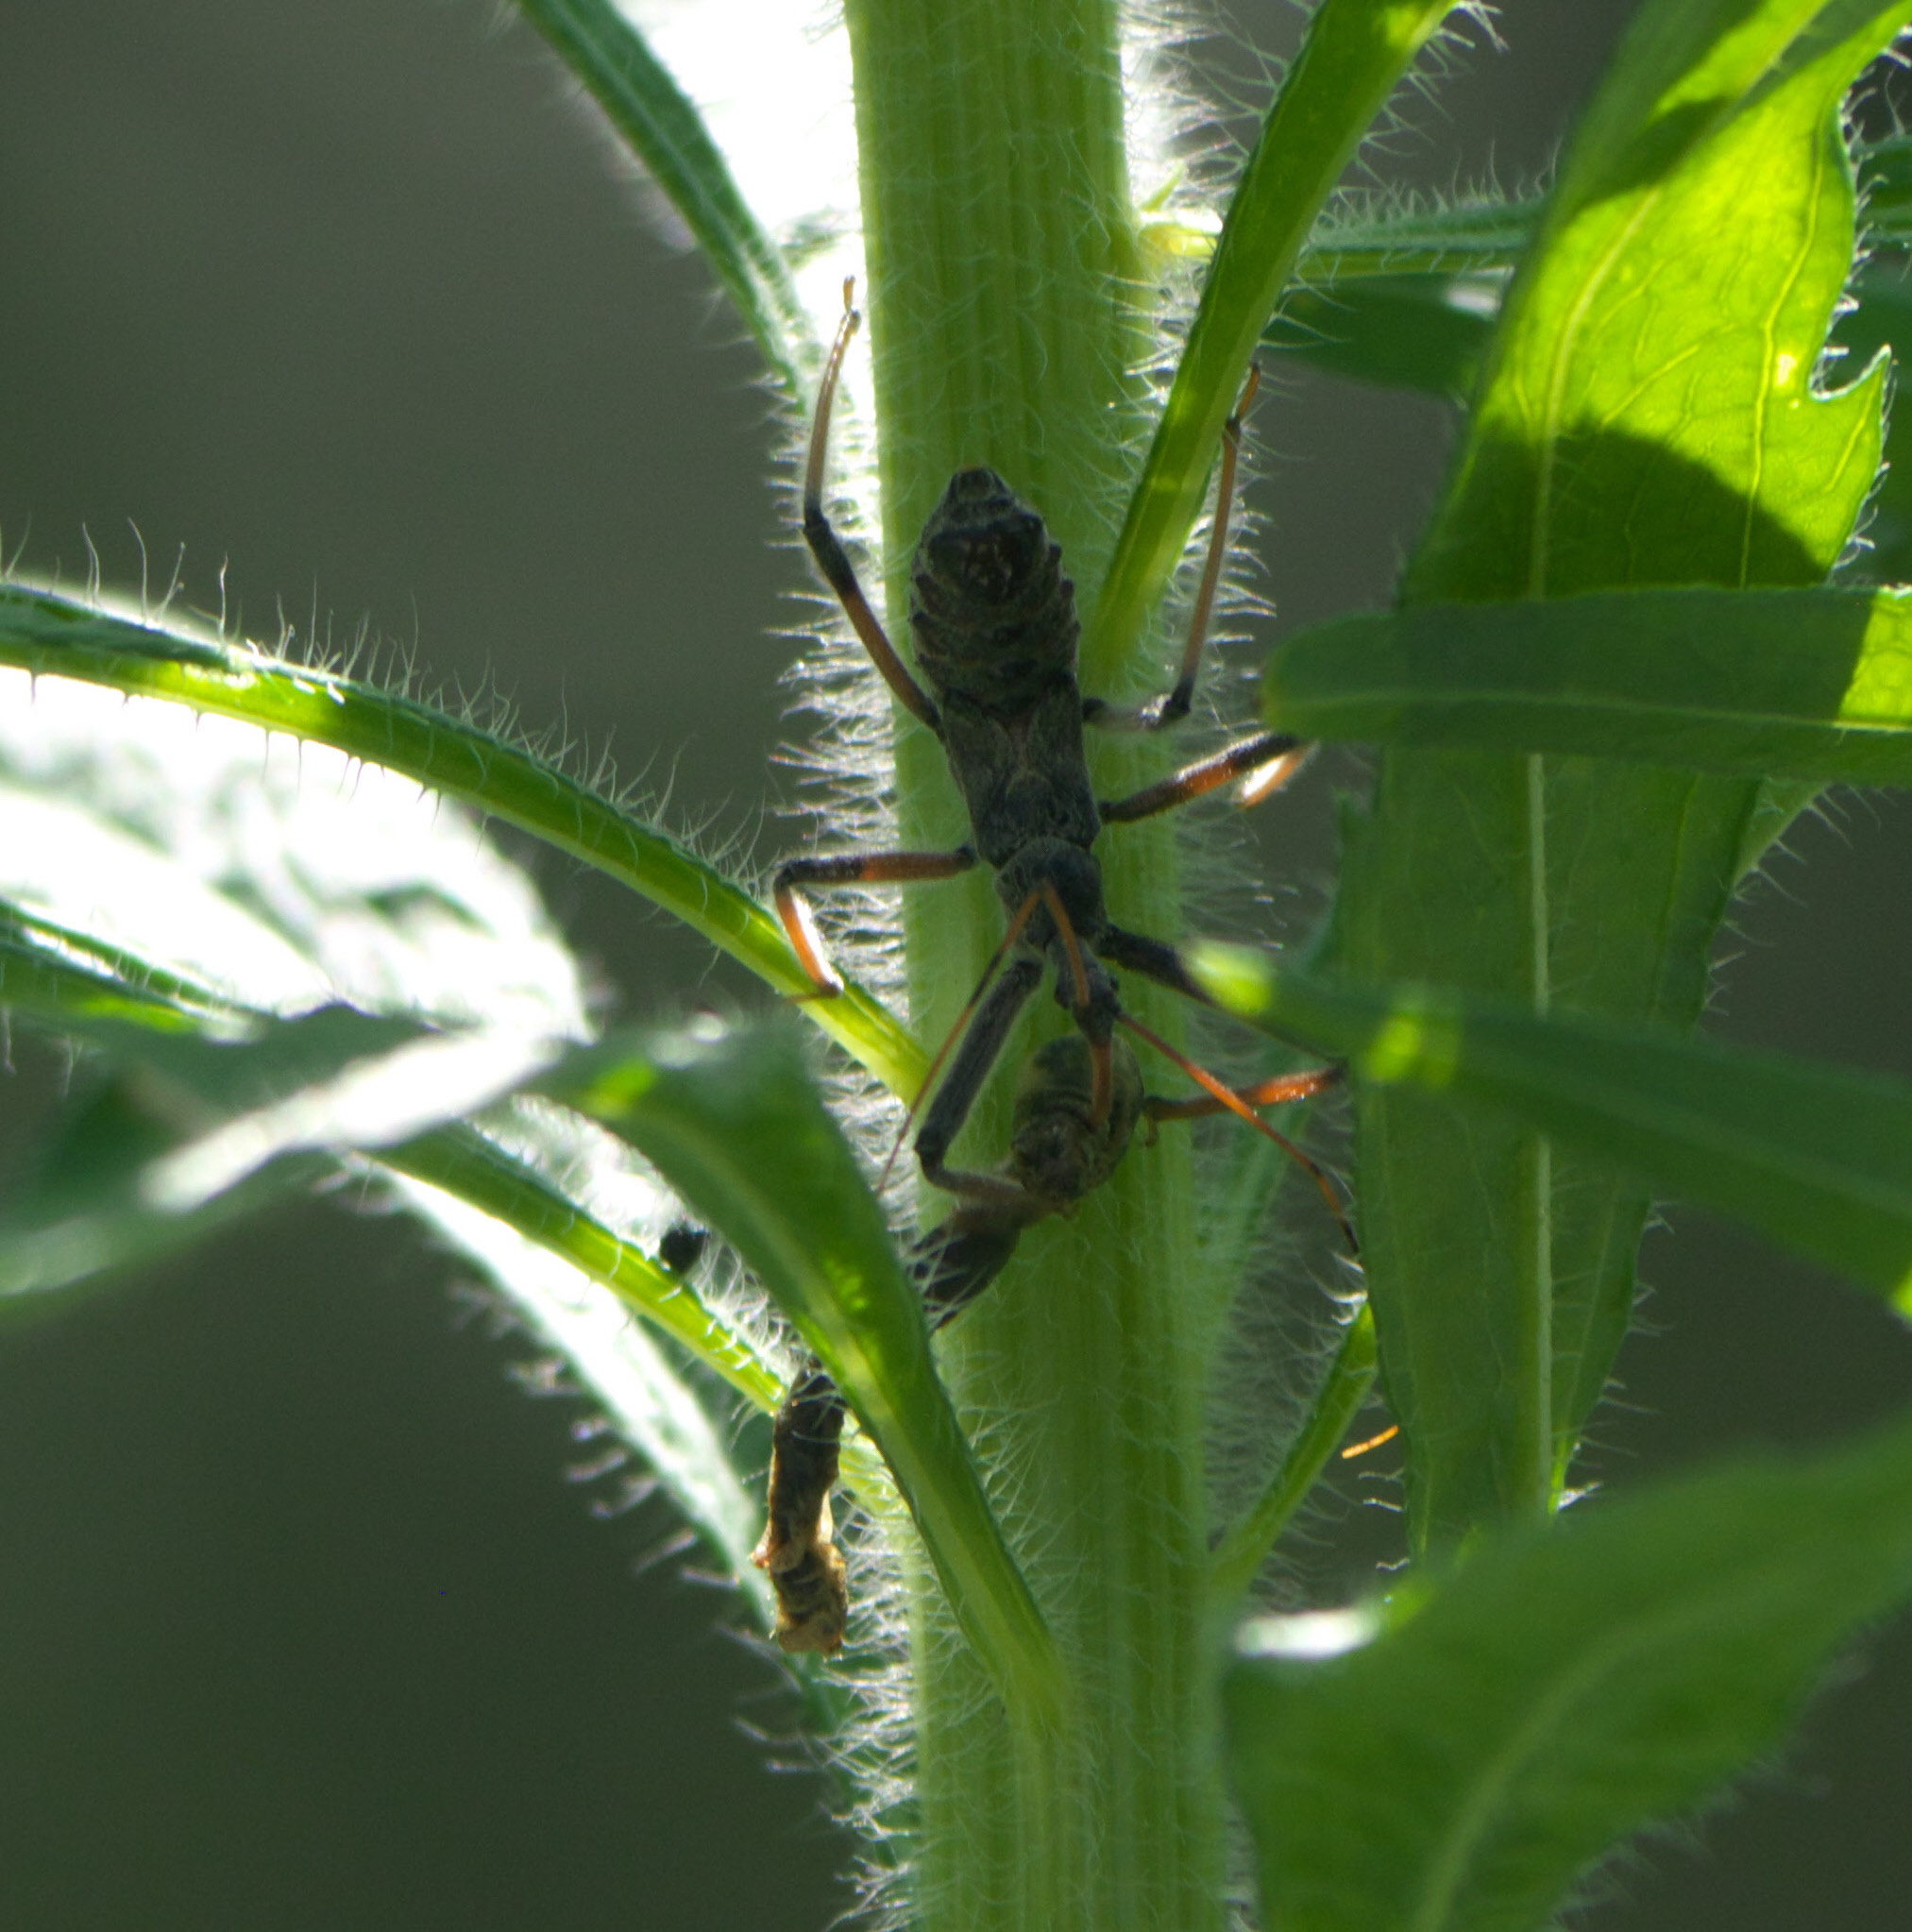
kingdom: Animalia
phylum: Arthropoda
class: Insecta
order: Hemiptera
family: Reduviidae
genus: Arilus
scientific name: Arilus cristatus
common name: North american wheel bug
